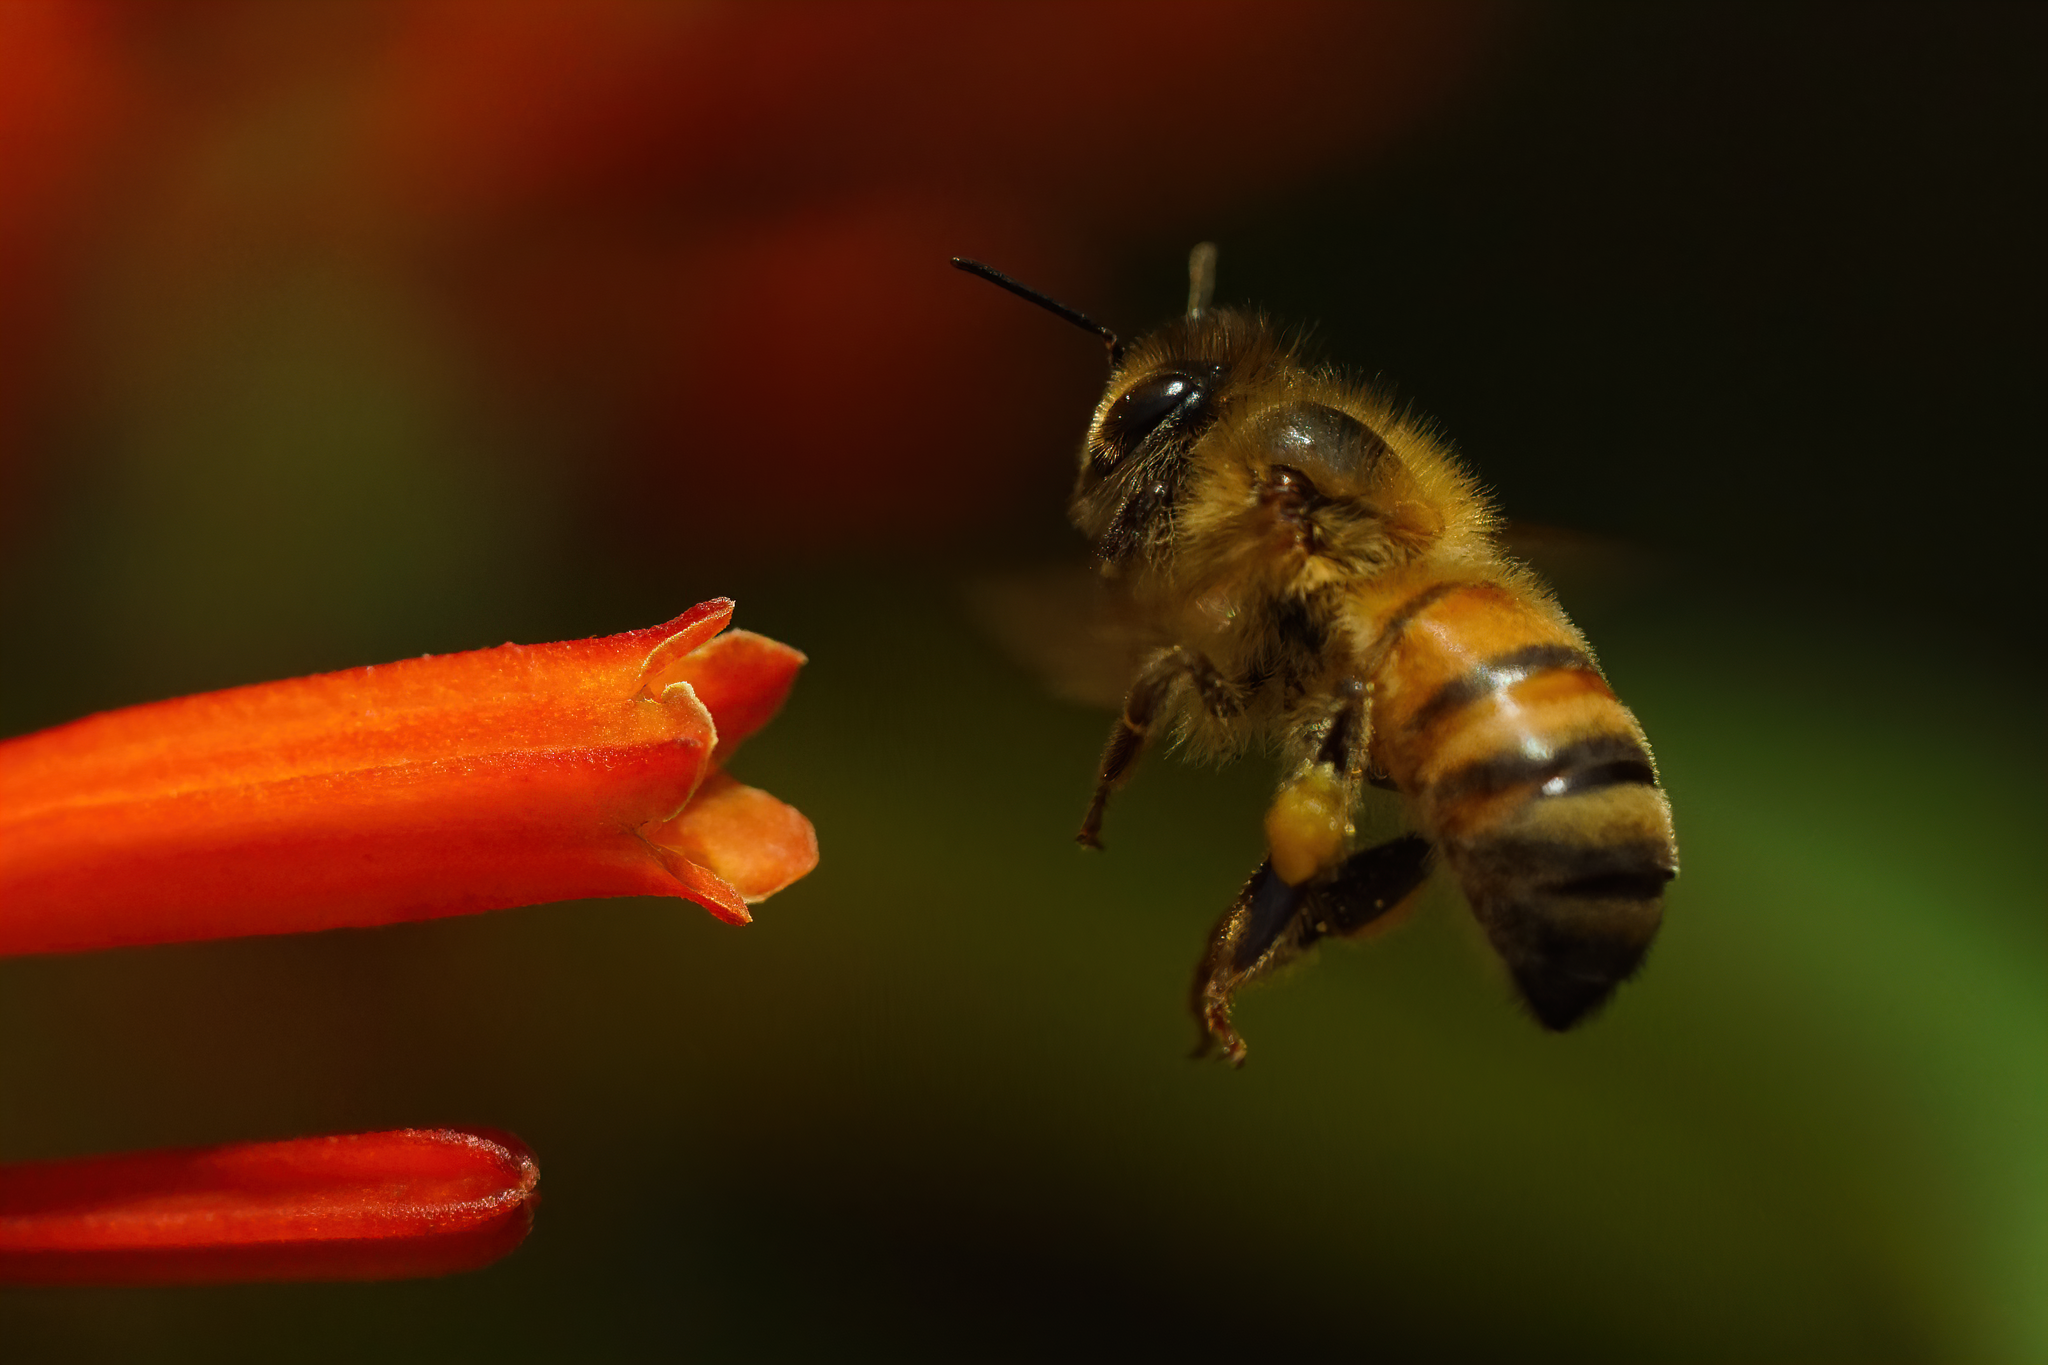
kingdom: Animalia
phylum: Arthropoda
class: Insecta
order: Hymenoptera
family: Apidae
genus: Apis
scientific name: Apis mellifera
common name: Honey bee
